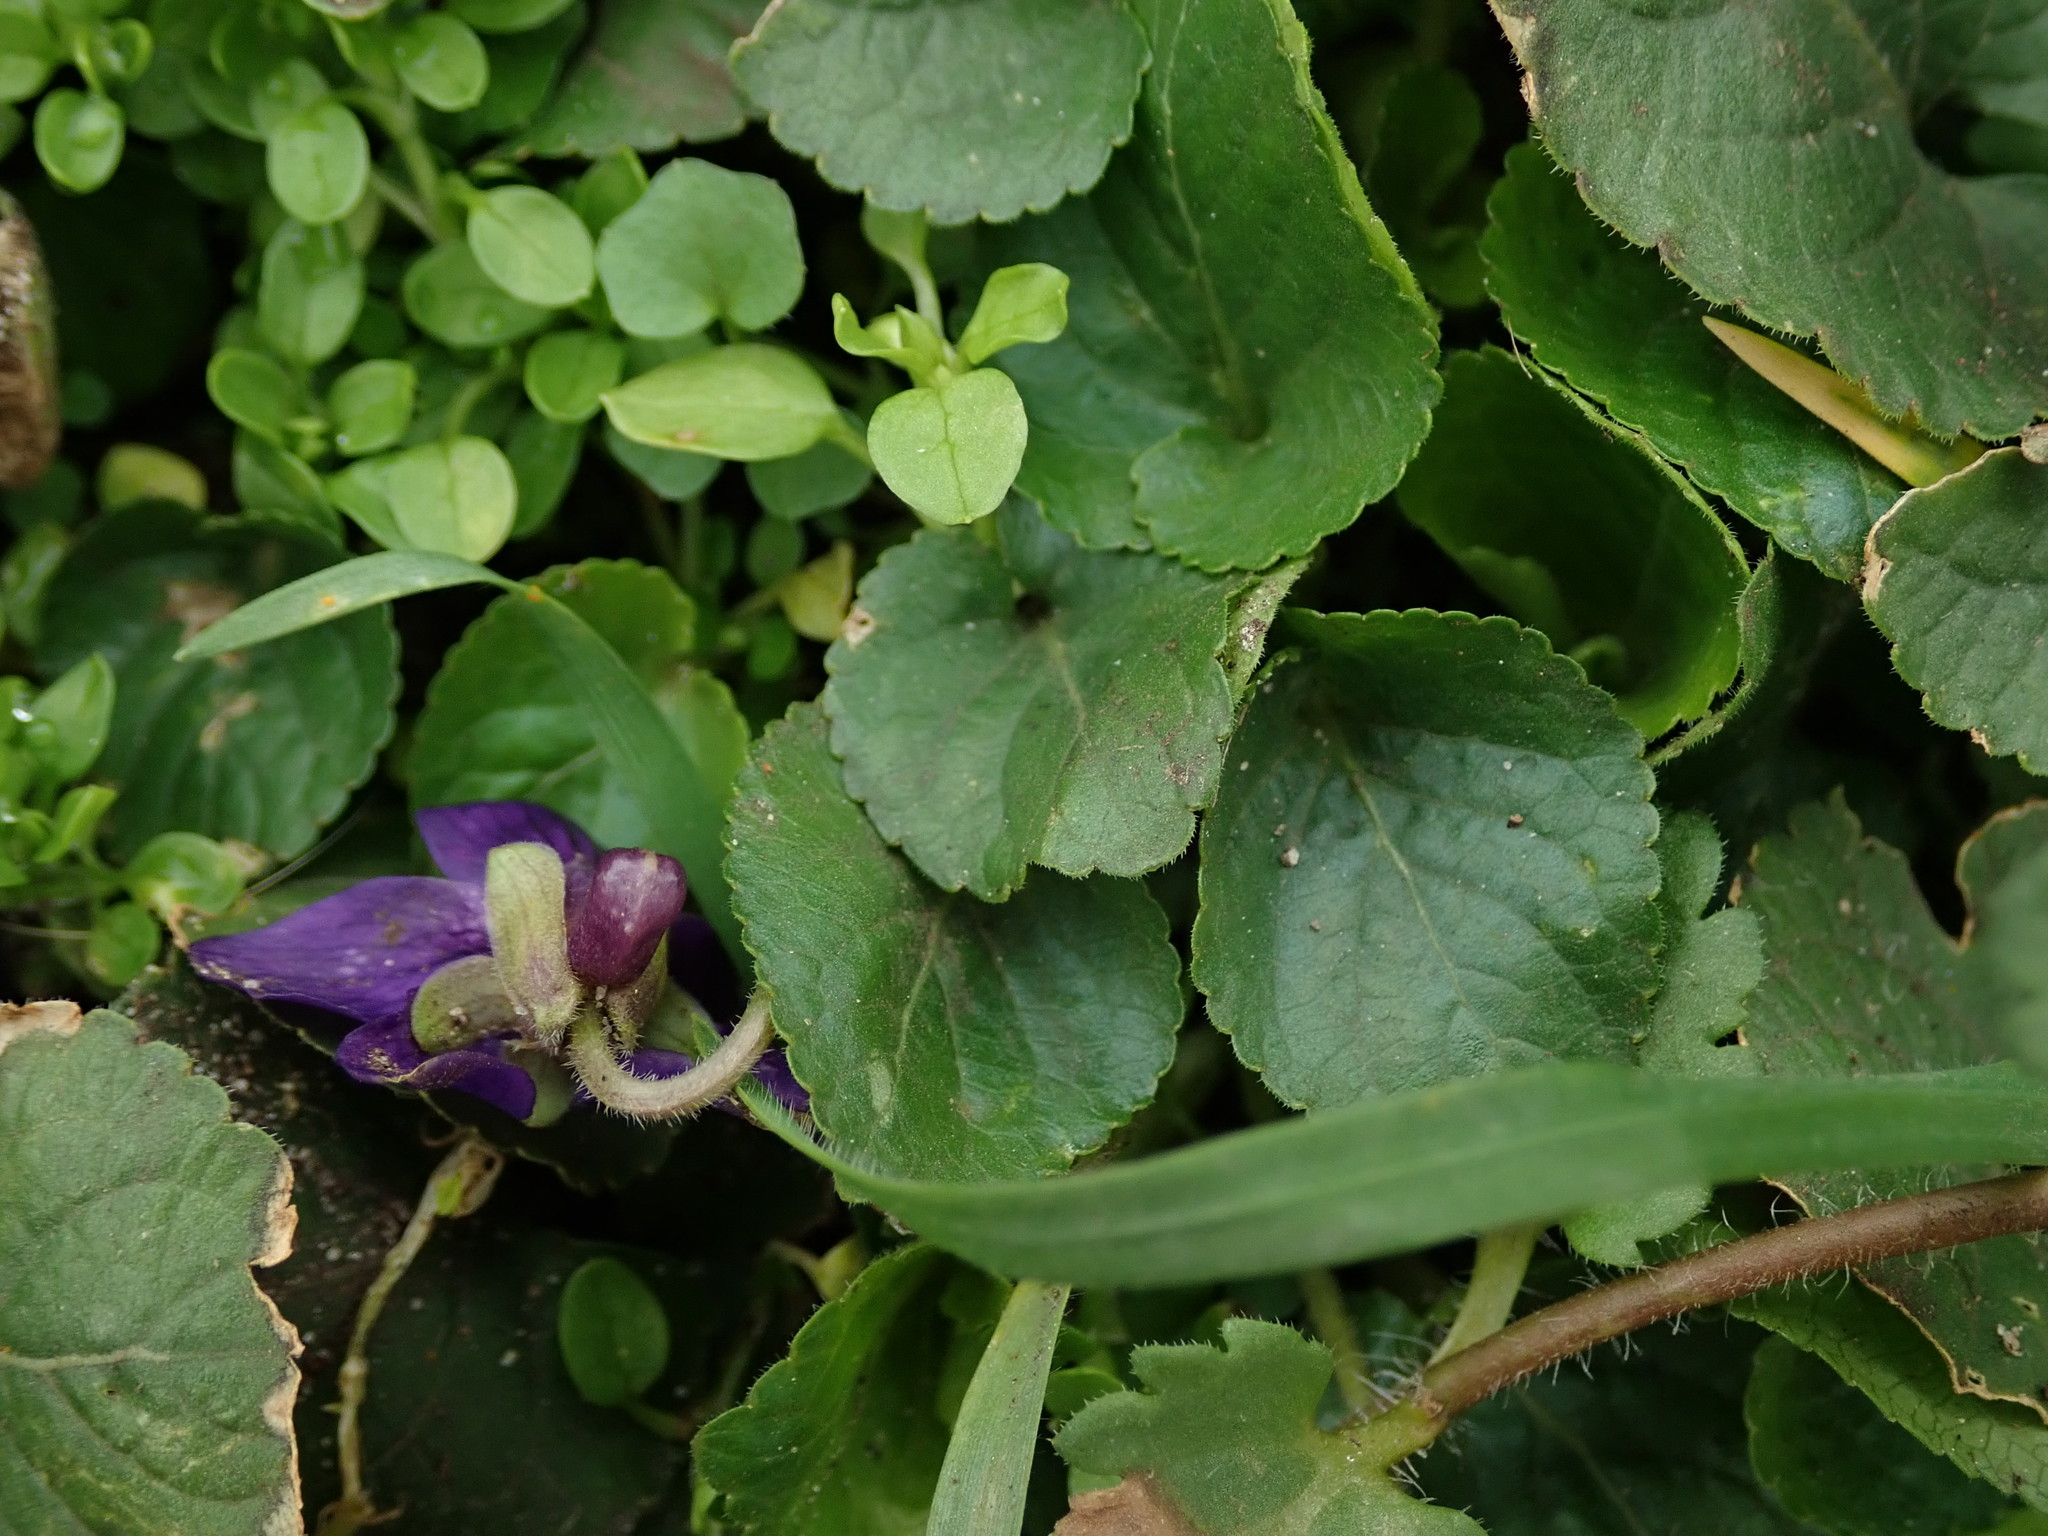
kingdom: Plantae
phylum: Tracheophyta
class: Magnoliopsida
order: Malpighiales
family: Violaceae
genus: Viola
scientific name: Viola odorata
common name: Sweet violet
